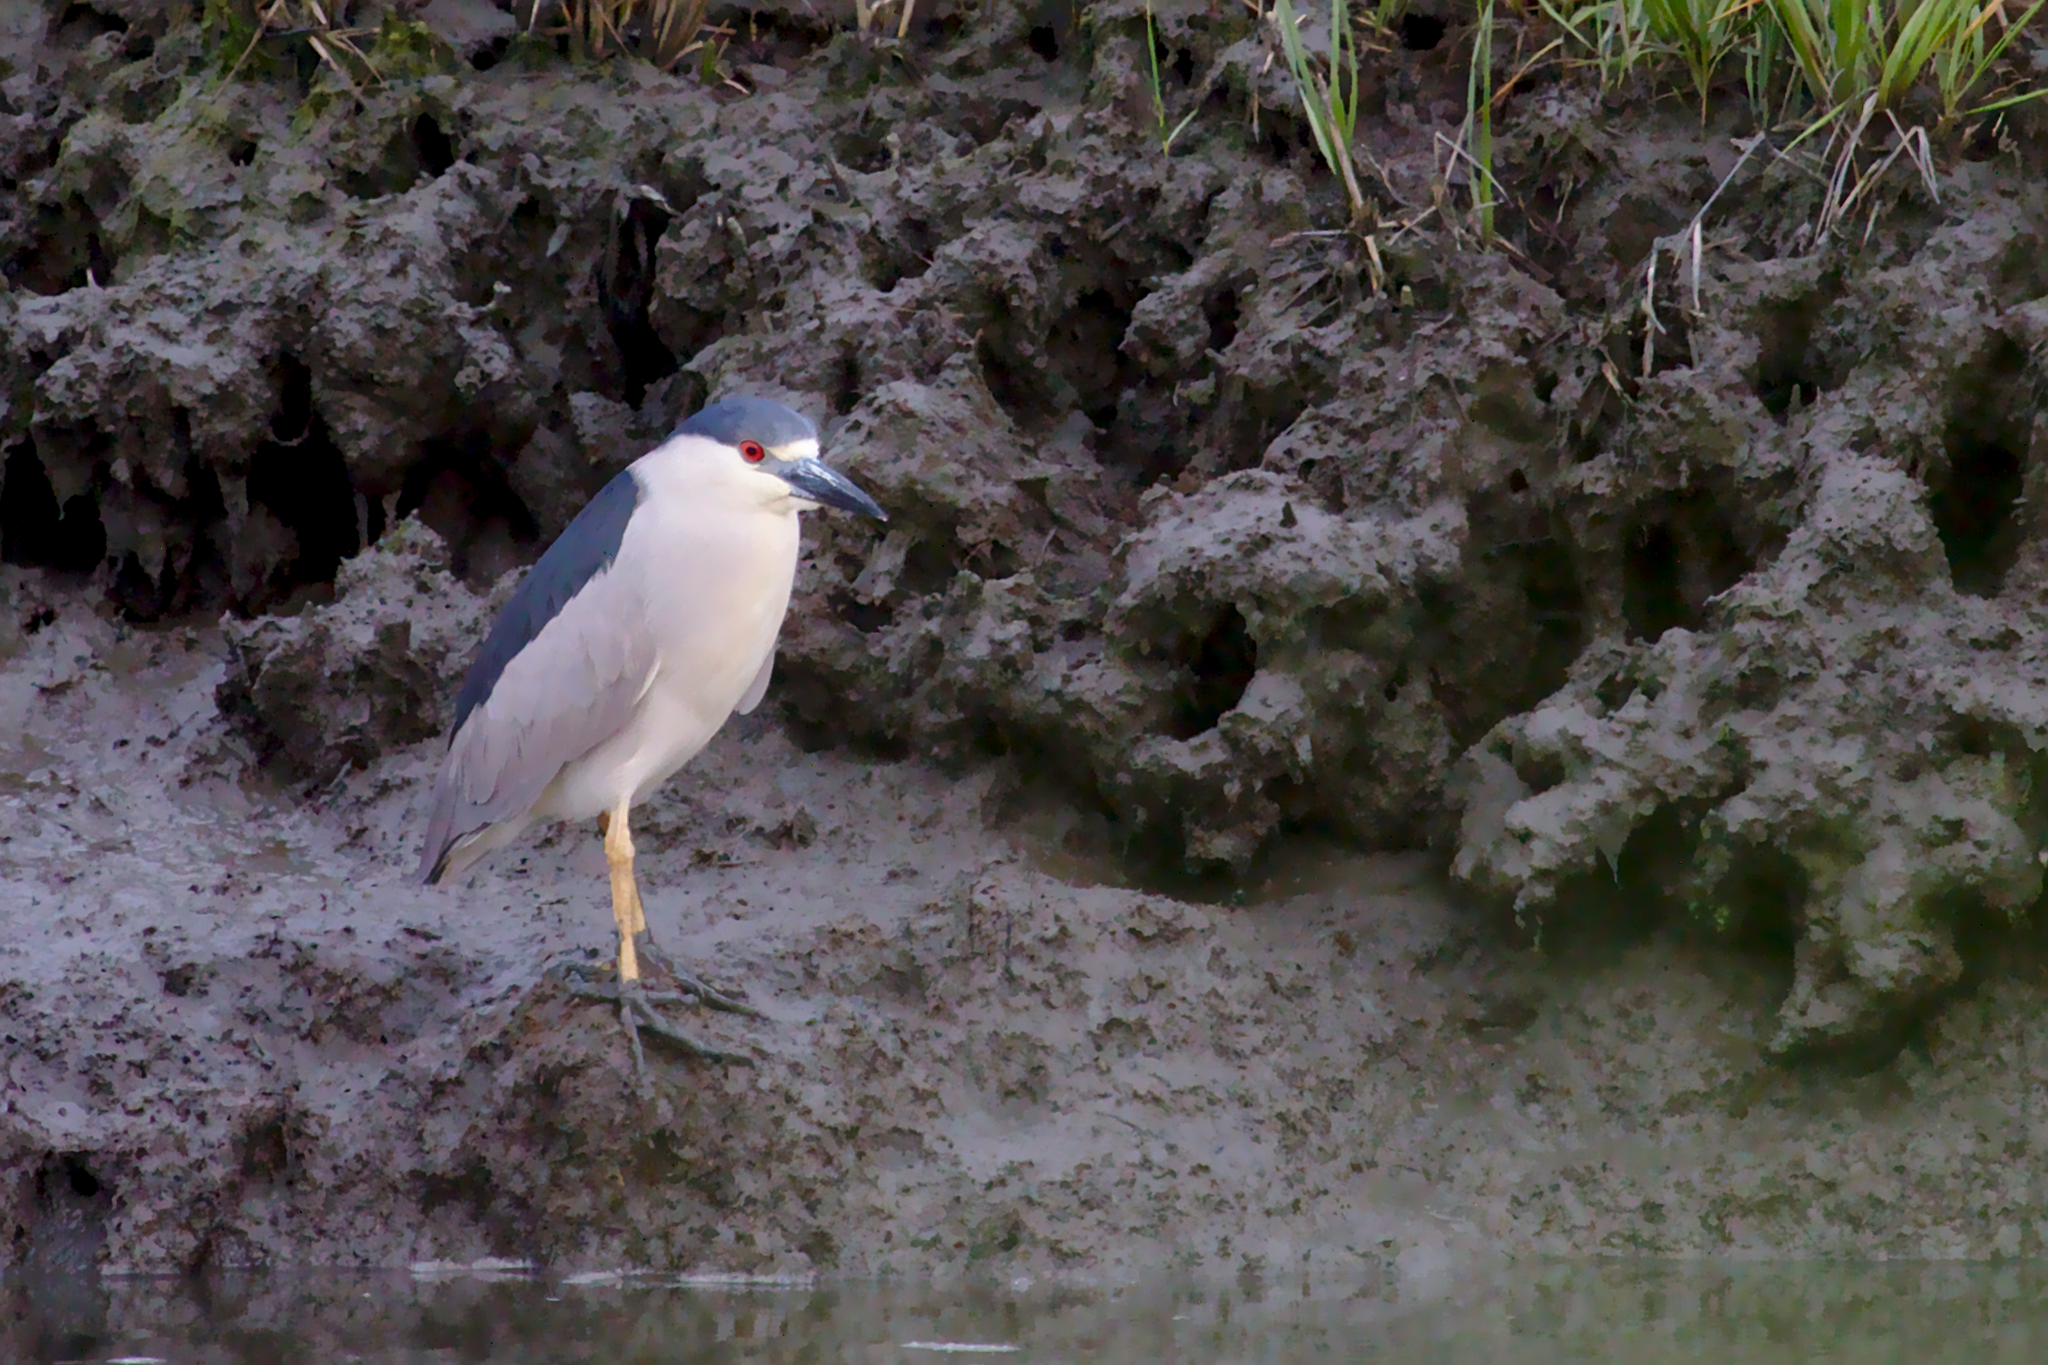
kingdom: Animalia
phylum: Chordata
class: Aves
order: Pelecaniformes
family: Ardeidae
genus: Nycticorax
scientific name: Nycticorax nycticorax
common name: Black-crowned night heron
